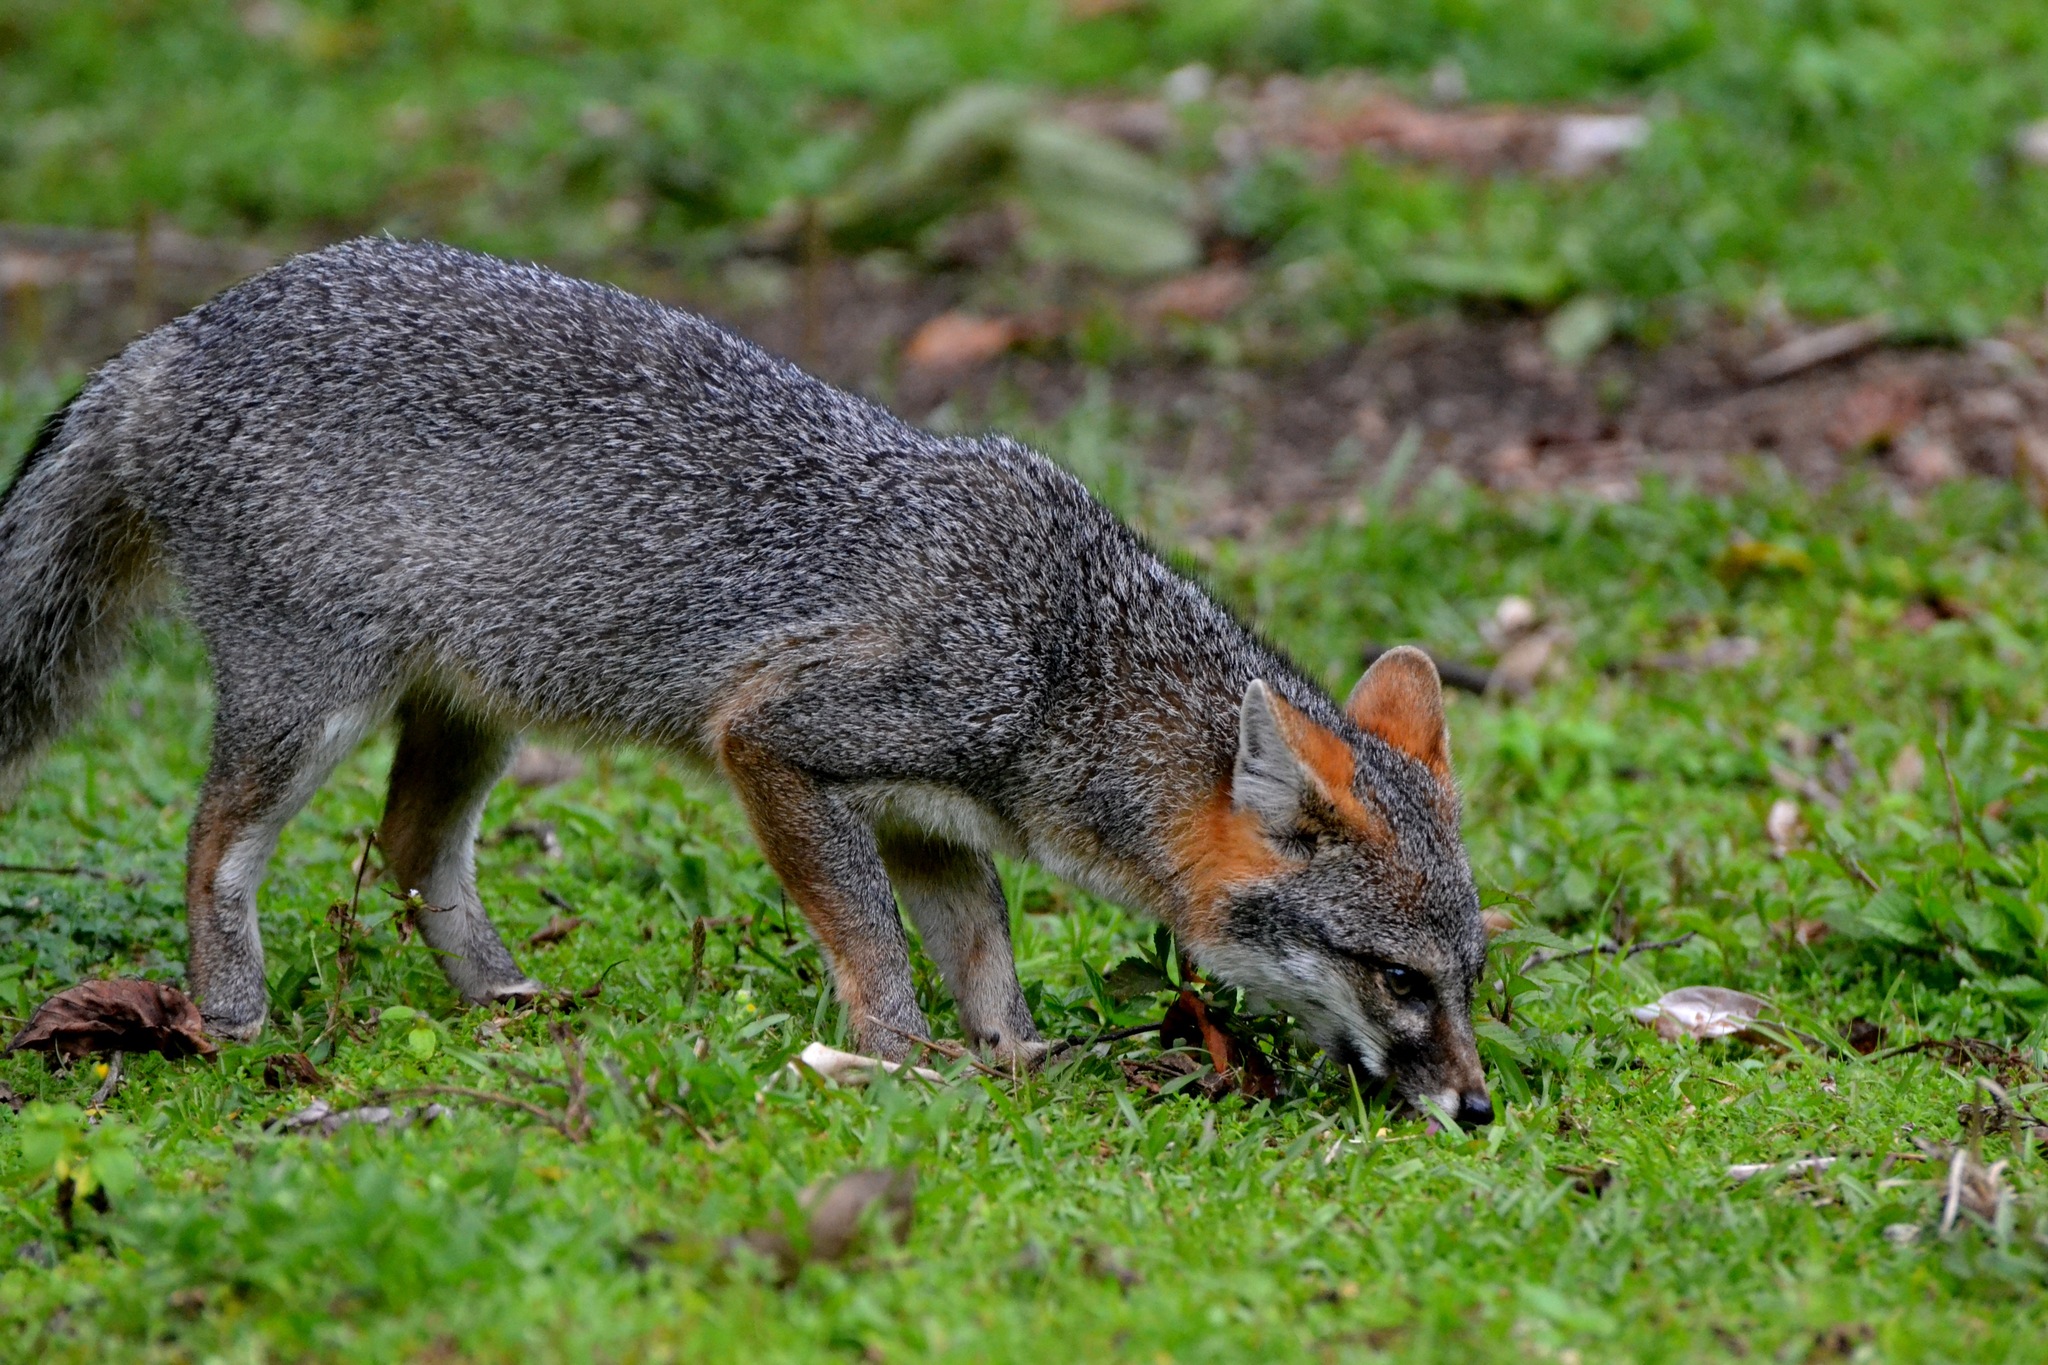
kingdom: Animalia
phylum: Chordata
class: Mammalia
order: Carnivora
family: Canidae
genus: Urocyon
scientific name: Urocyon cinereoargenteus
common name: Gray fox
